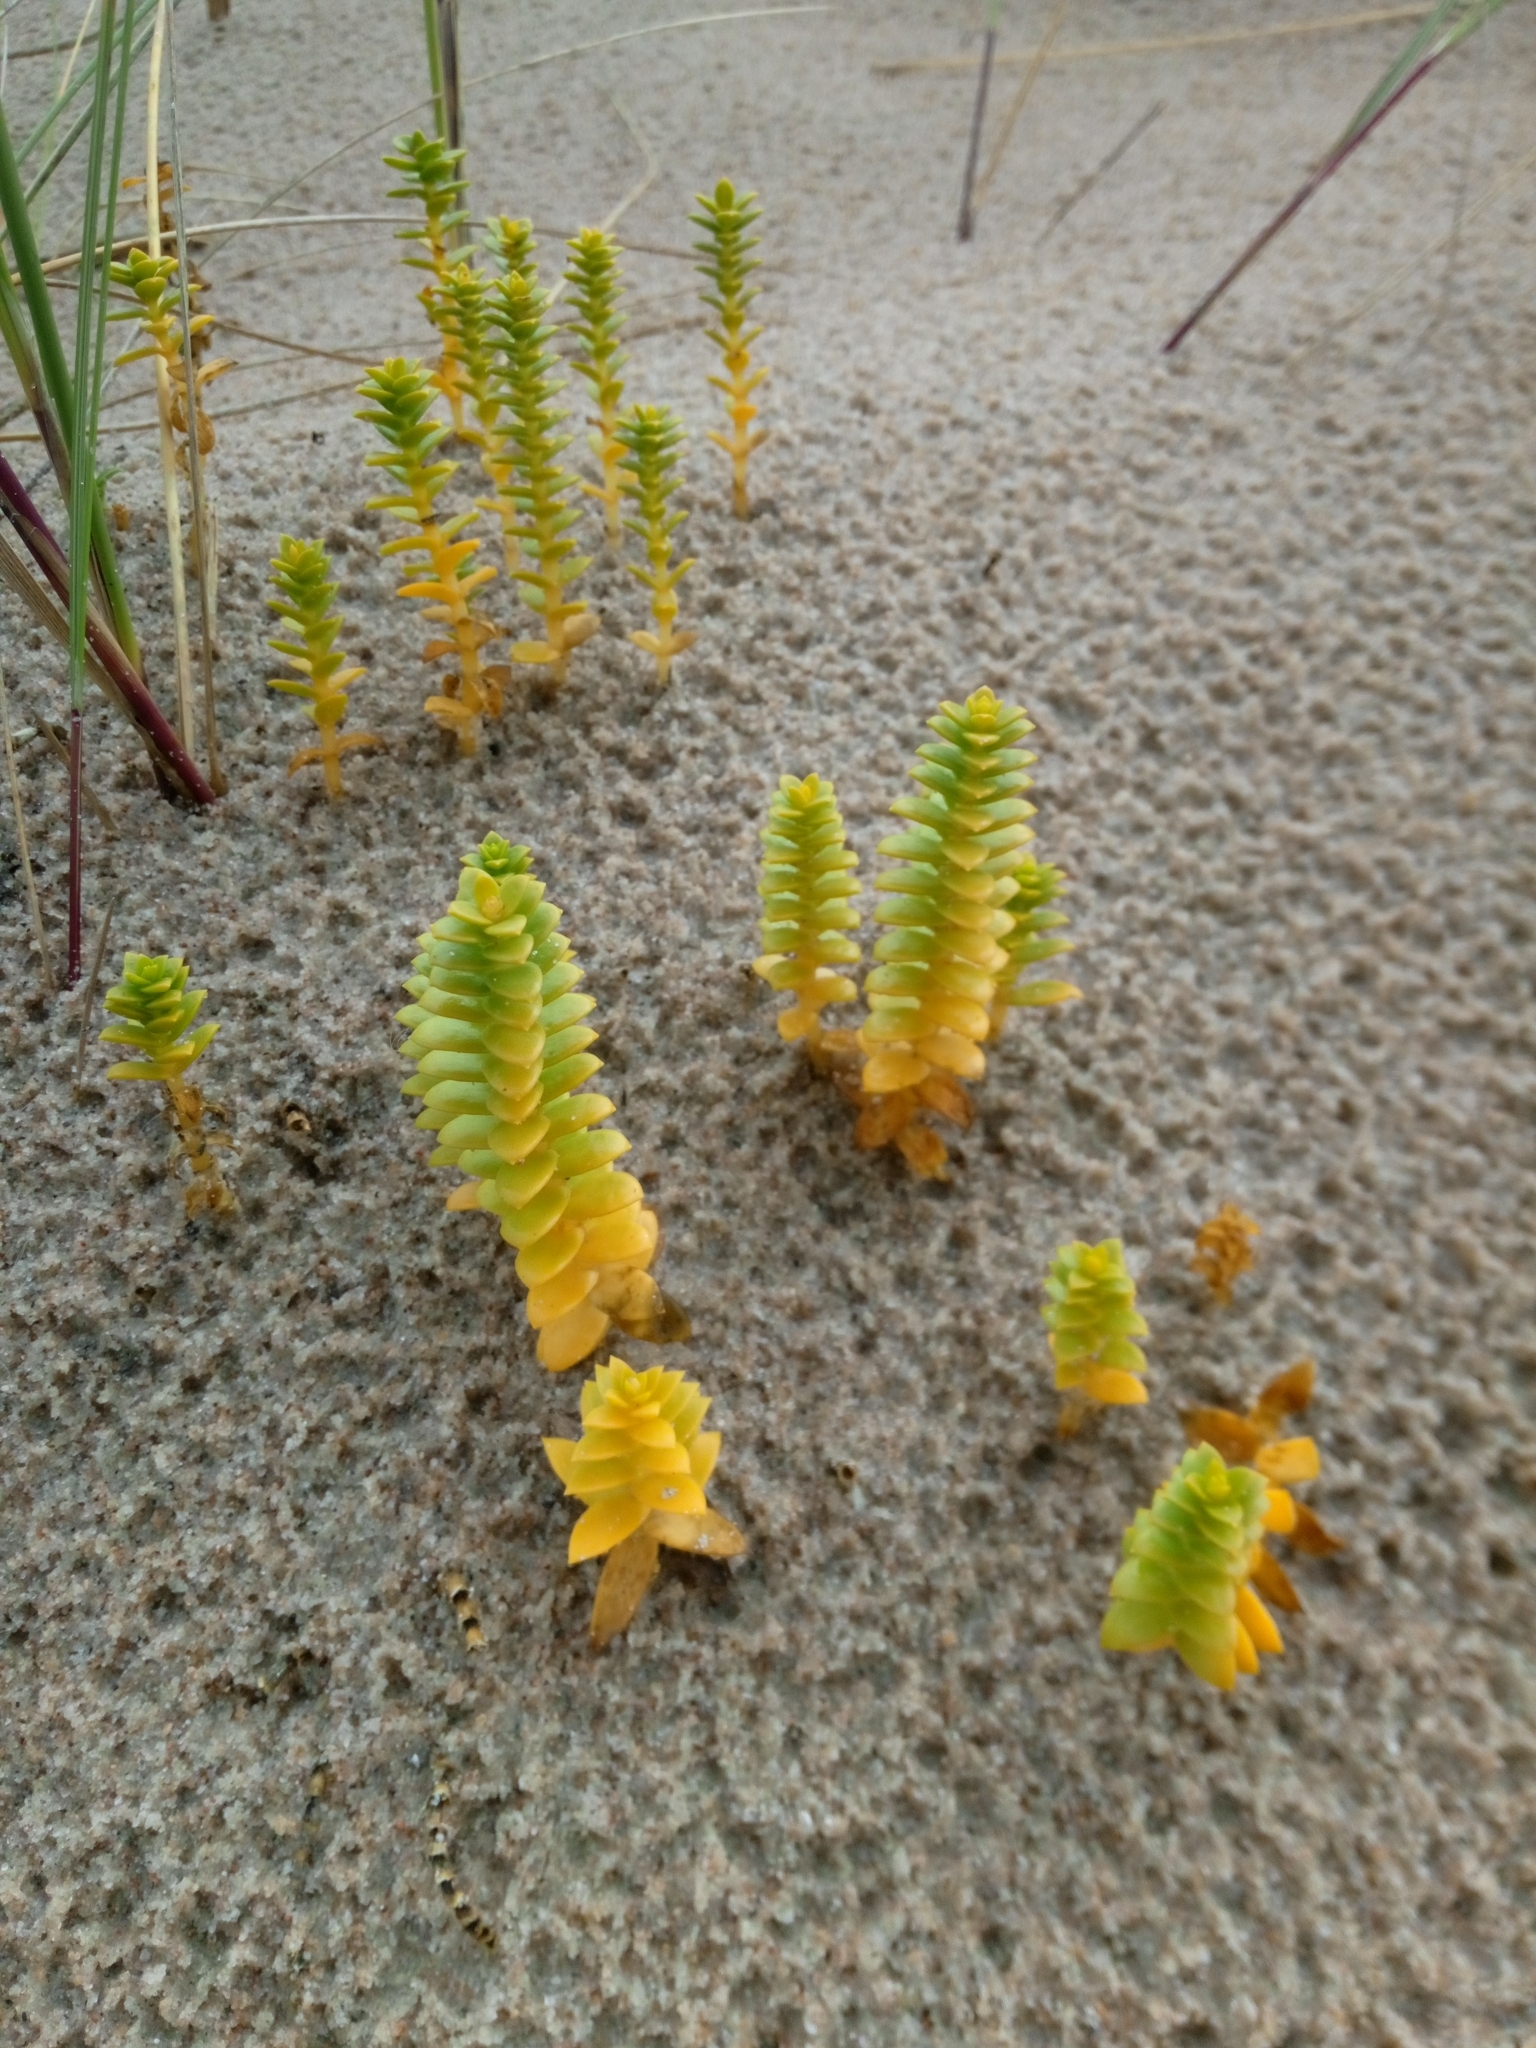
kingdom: Plantae
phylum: Tracheophyta
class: Magnoliopsida
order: Caryophyllales
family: Caryophyllaceae
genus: Honckenya
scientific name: Honckenya peploides
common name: Sea sandwort
